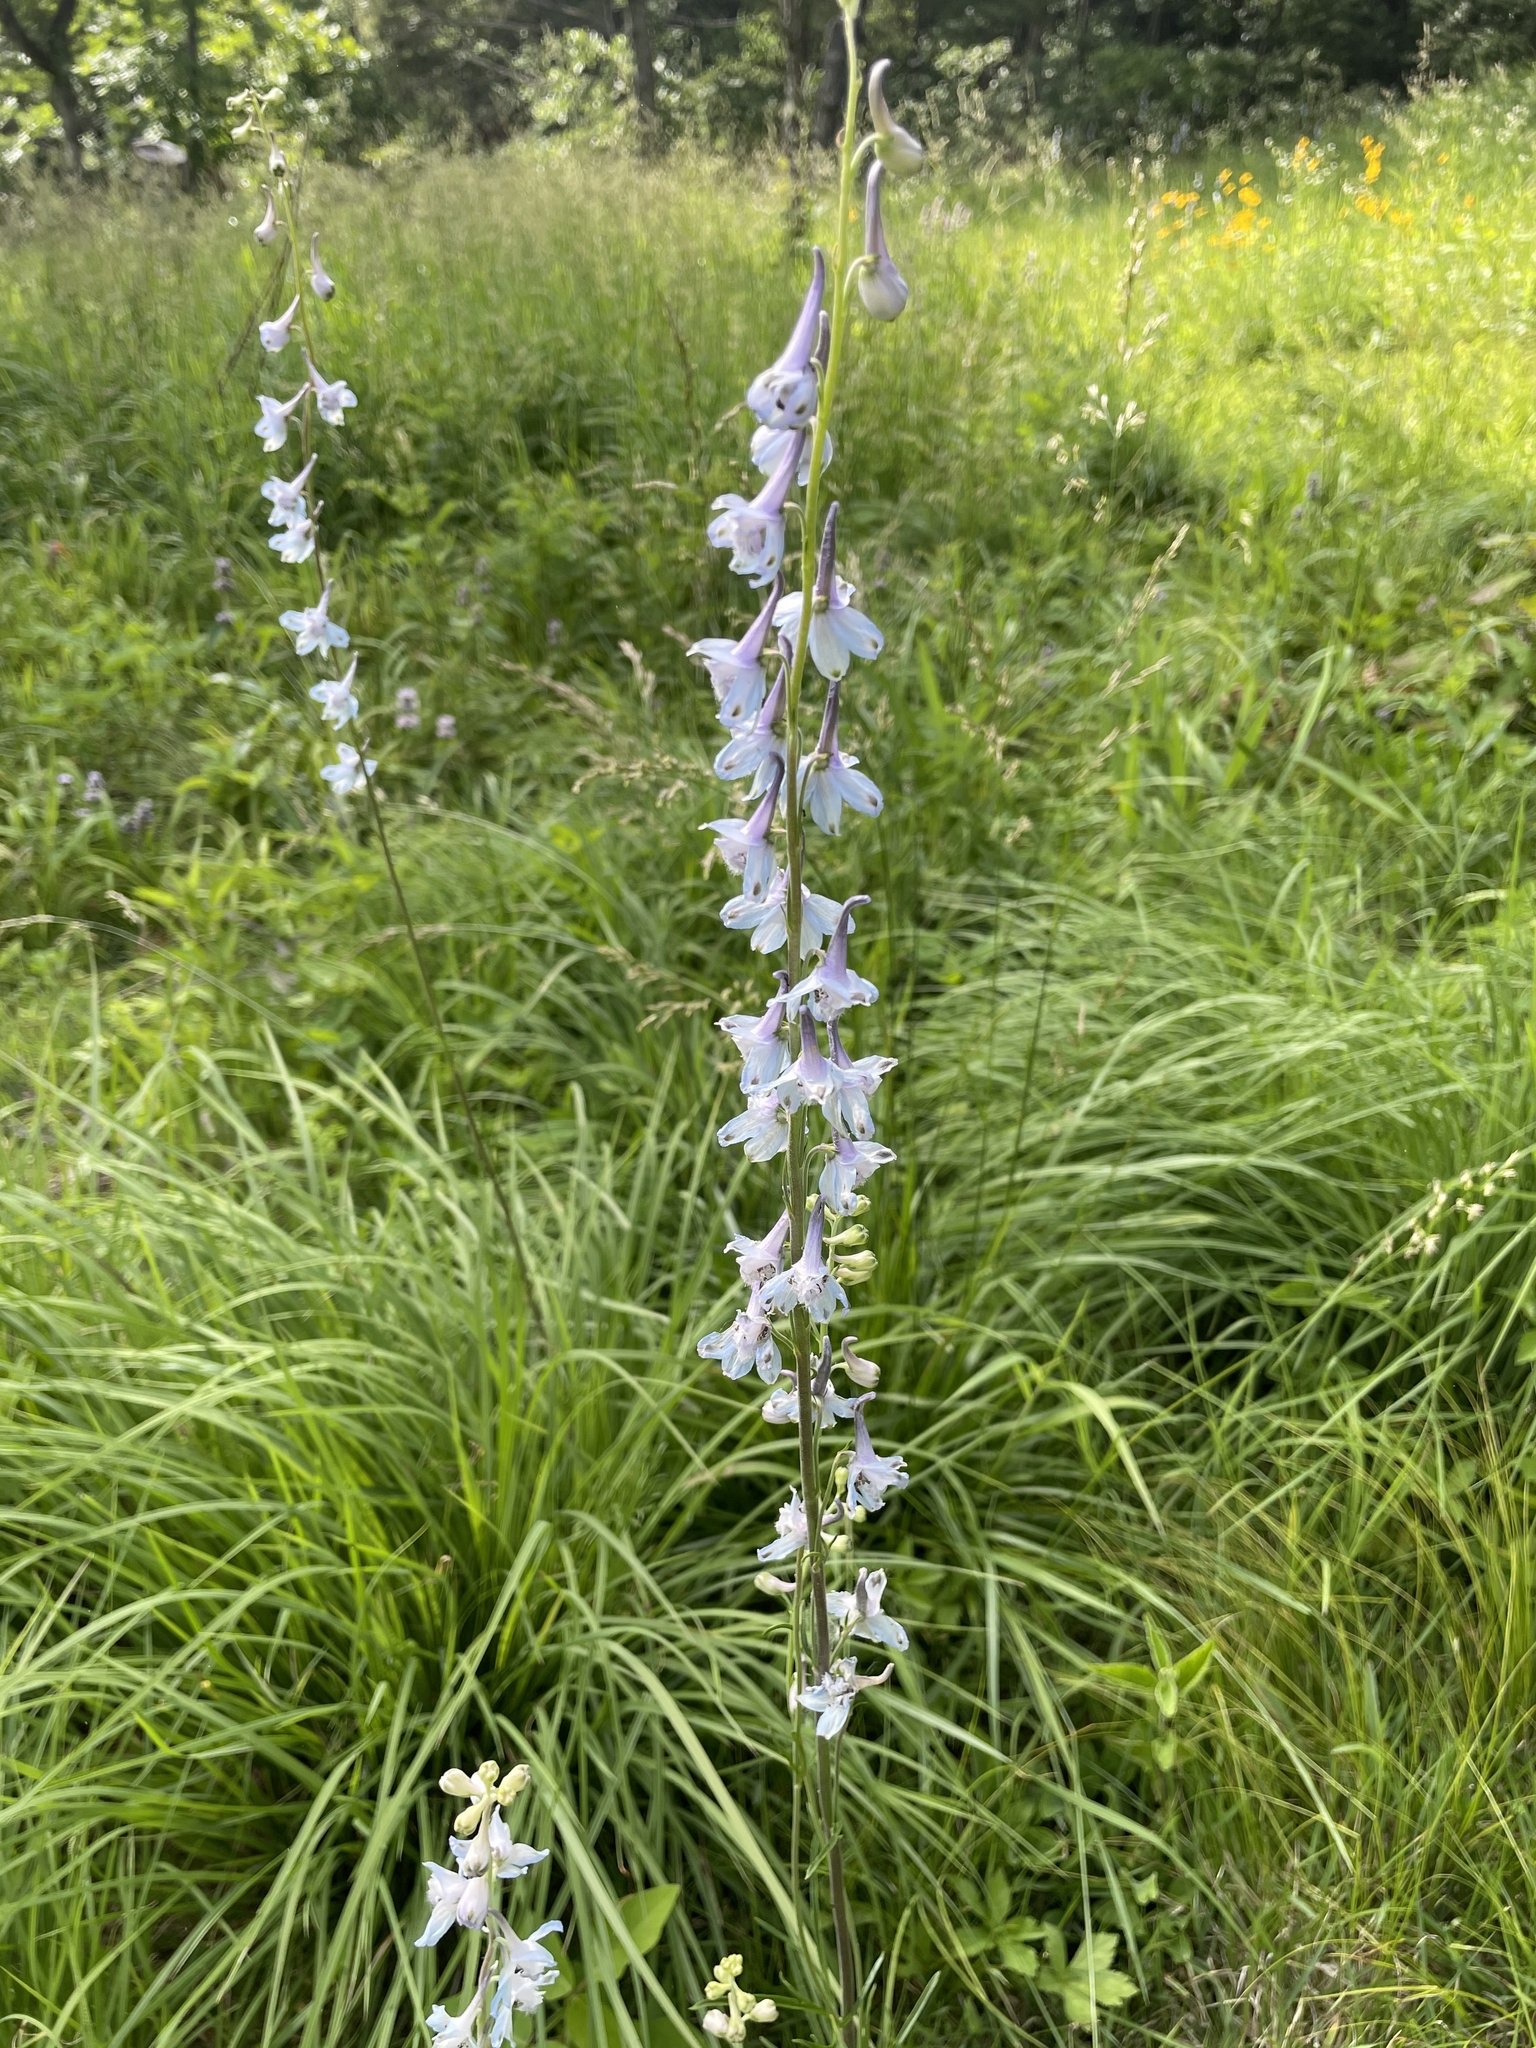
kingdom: Plantae
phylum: Tracheophyta
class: Magnoliopsida
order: Ranunculales
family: Ranunculaceae
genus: Delphinium
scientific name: Delphinium carolinianum
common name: Carolina larkspur
